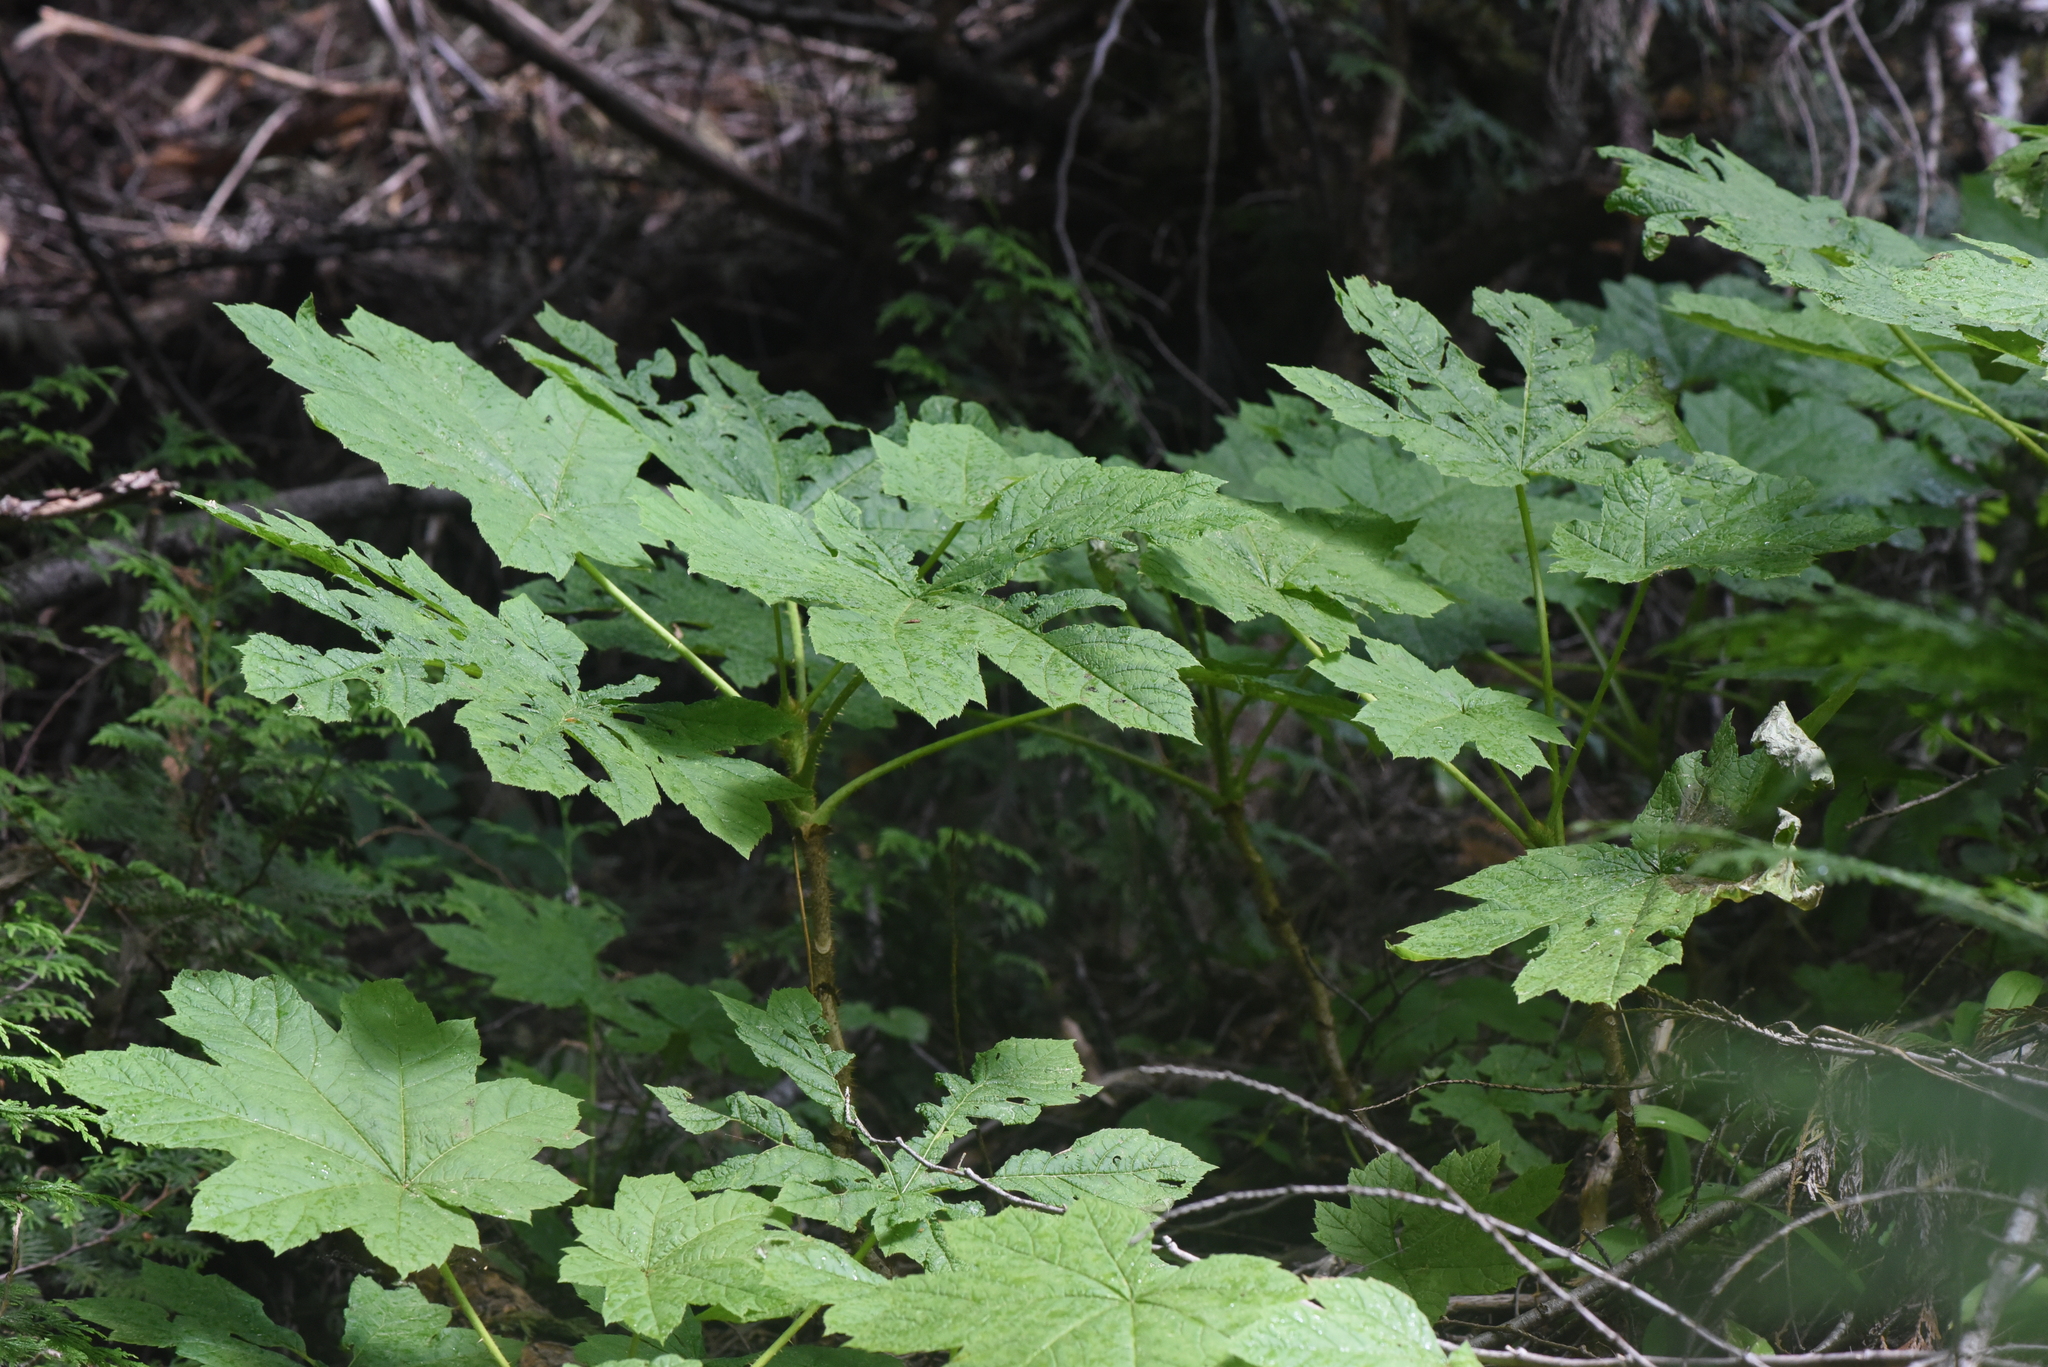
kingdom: Plantae
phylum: Tracheophyta
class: Magnoliopsida
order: Apiales
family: Araliaceae
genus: Oplopanax
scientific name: Oplopanax horridus
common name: Devil's walking-stick
